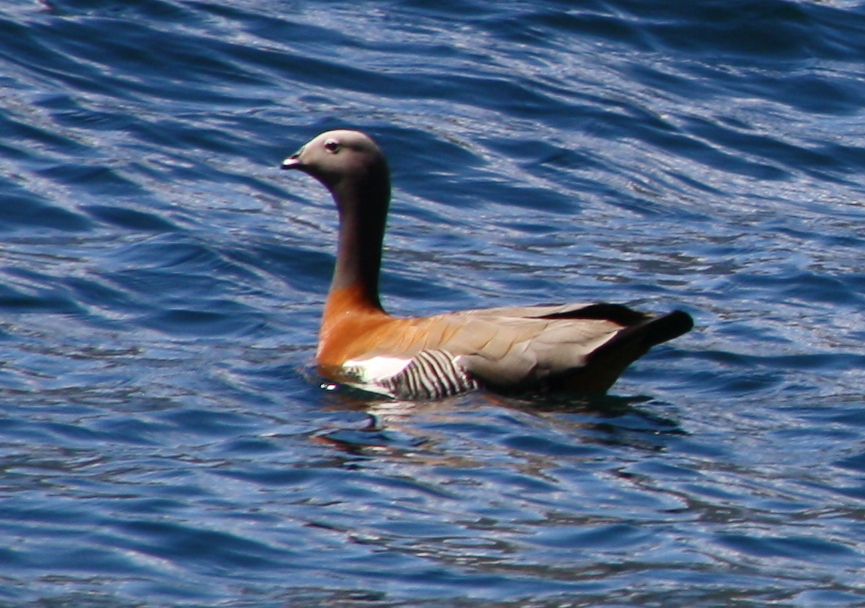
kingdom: Animalia
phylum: Chordata
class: Aves
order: Anseriformes
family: Anatidae
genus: Chloephaga
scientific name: Chloephaga poliocephala
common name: Ashy-headed goose
